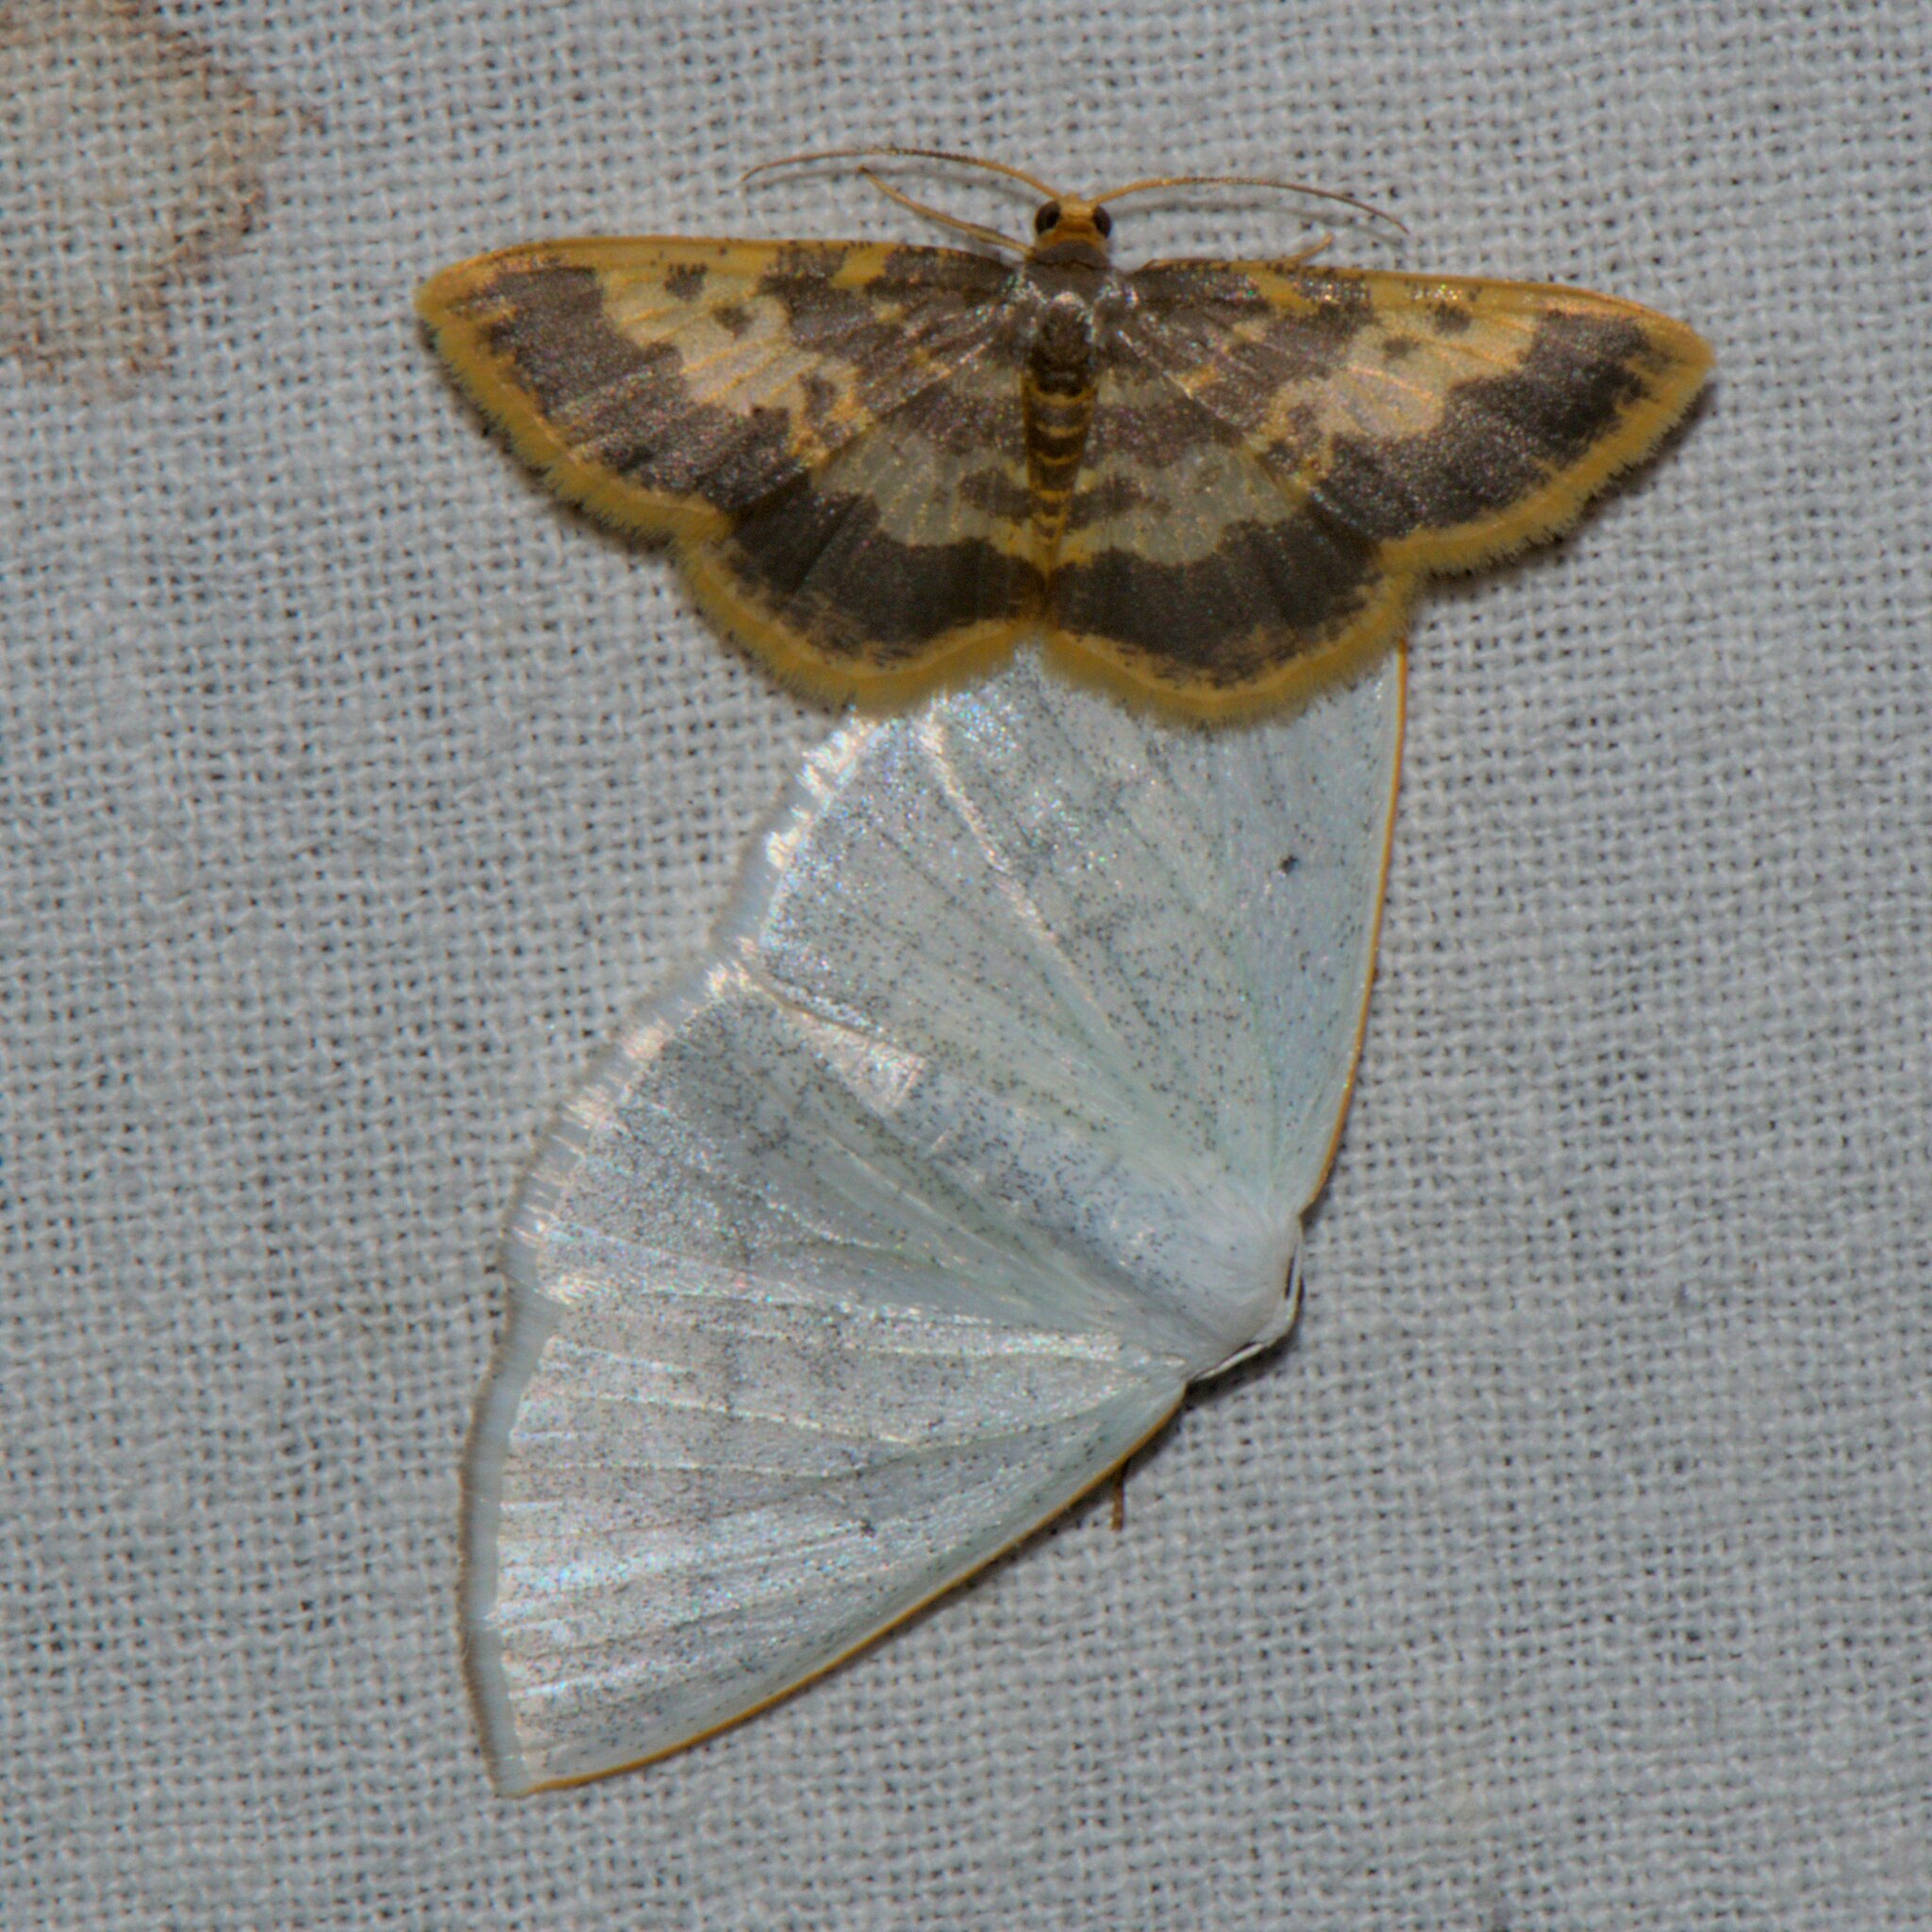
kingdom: Animalia
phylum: Arthropoda
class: Insecta
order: Lepidoptera
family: Geometridae
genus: Peratophyga
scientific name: Peratophyga hyalinata
